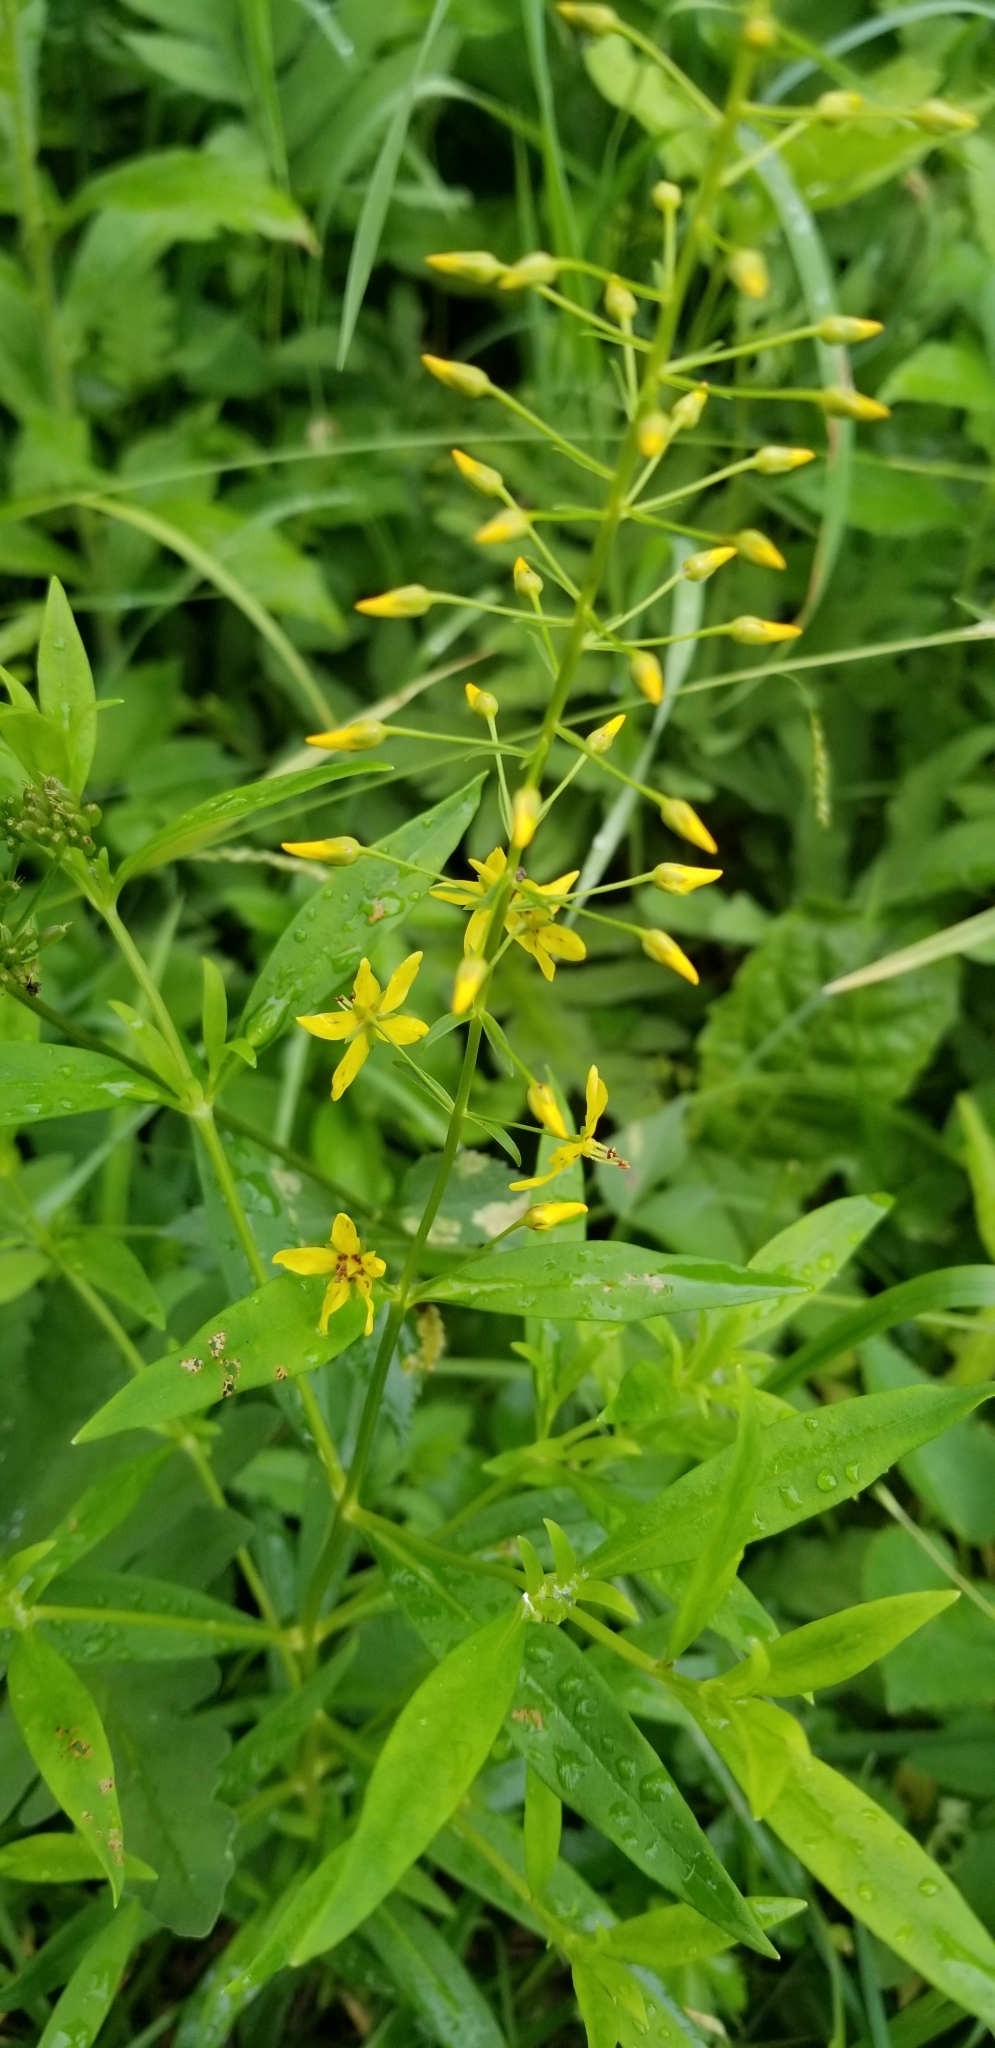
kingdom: Plantae
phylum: Tracheophyta
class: Magnoliopsida
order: Ericales
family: Primulaceae
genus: Lysimachia
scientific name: Lysimachia terrestris
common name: Lake loosestrife
